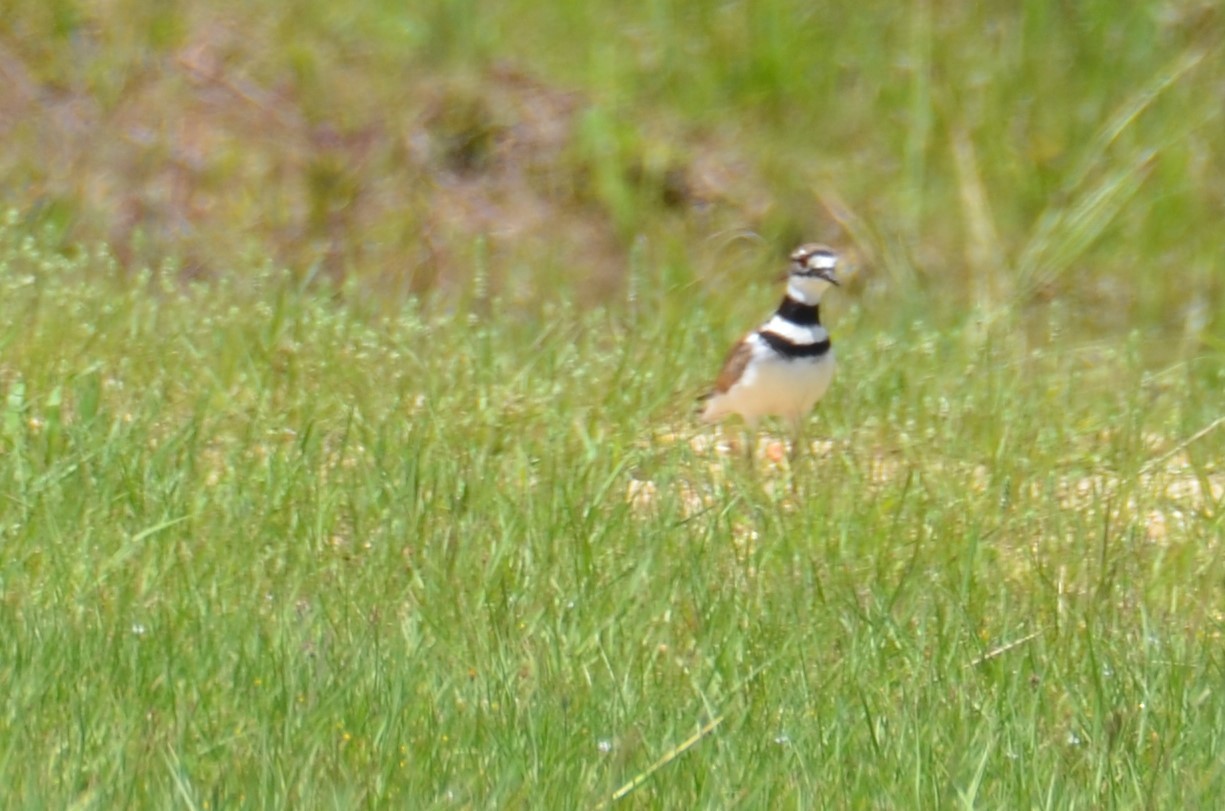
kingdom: Animalia
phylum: Chordata
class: Aves
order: Charadriiformes
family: Charadriidae
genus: Charadrius
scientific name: Charadrius vociferus
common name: Killdeer
